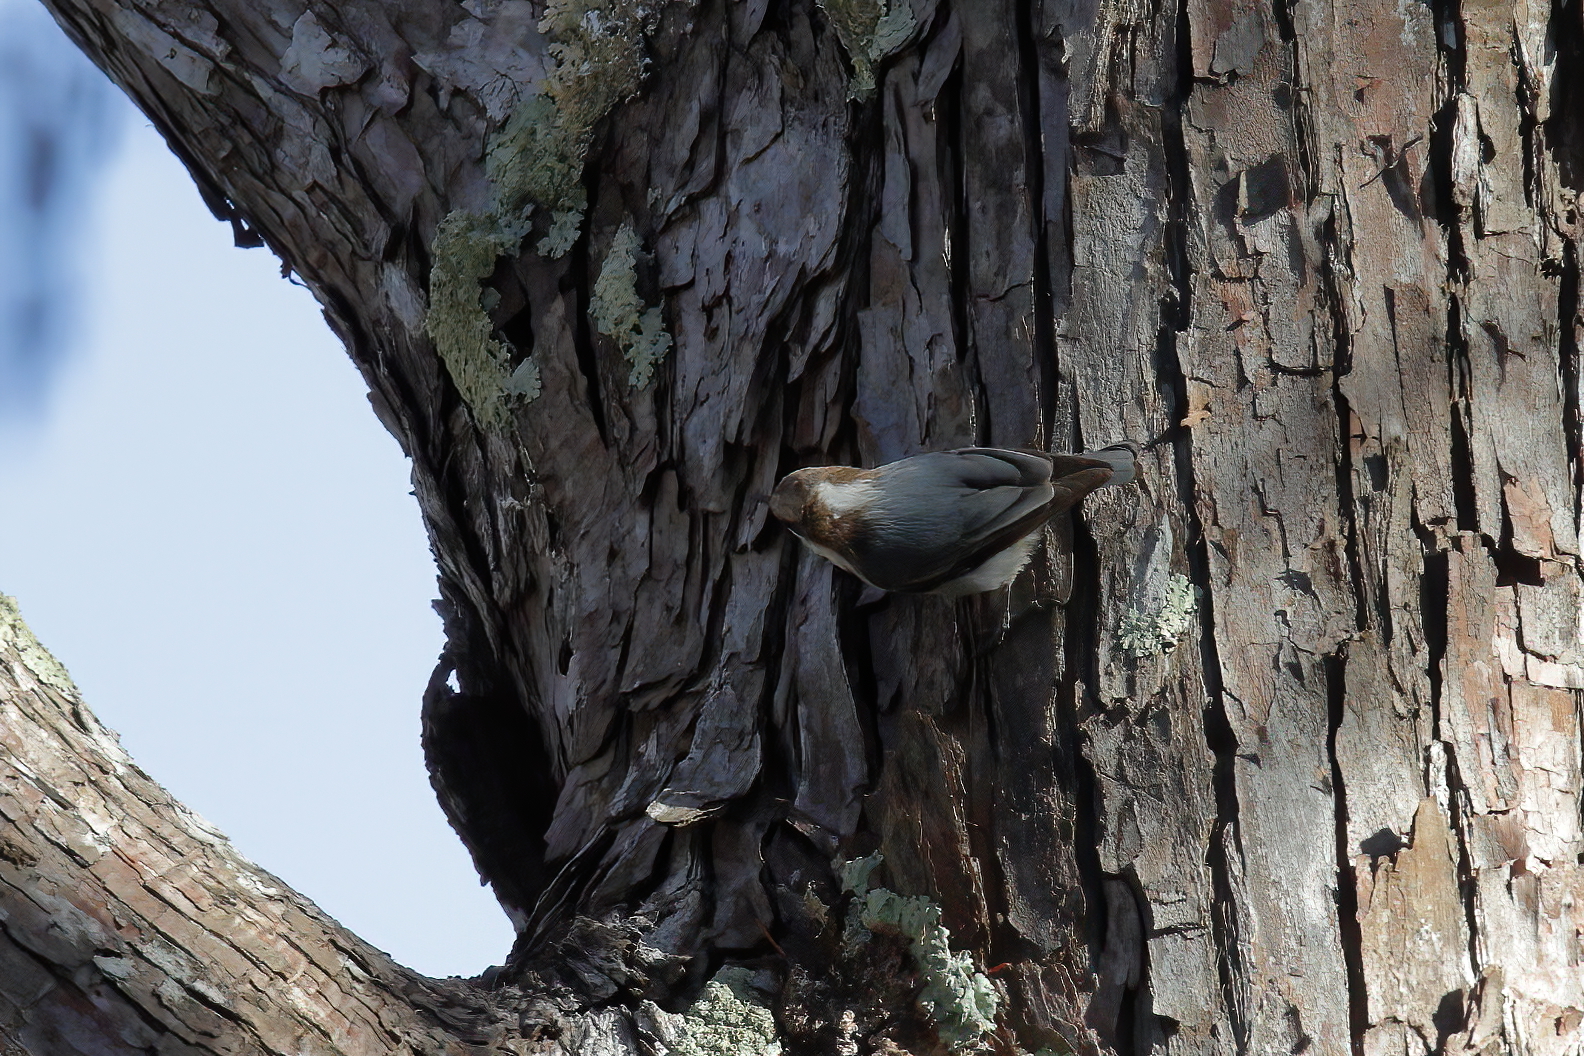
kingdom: Animalia
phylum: Chordata
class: Aves
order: Passeriformes
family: Sittidae
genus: Sitta
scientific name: Sitta pusilla
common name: Brown-headed nuthatch
